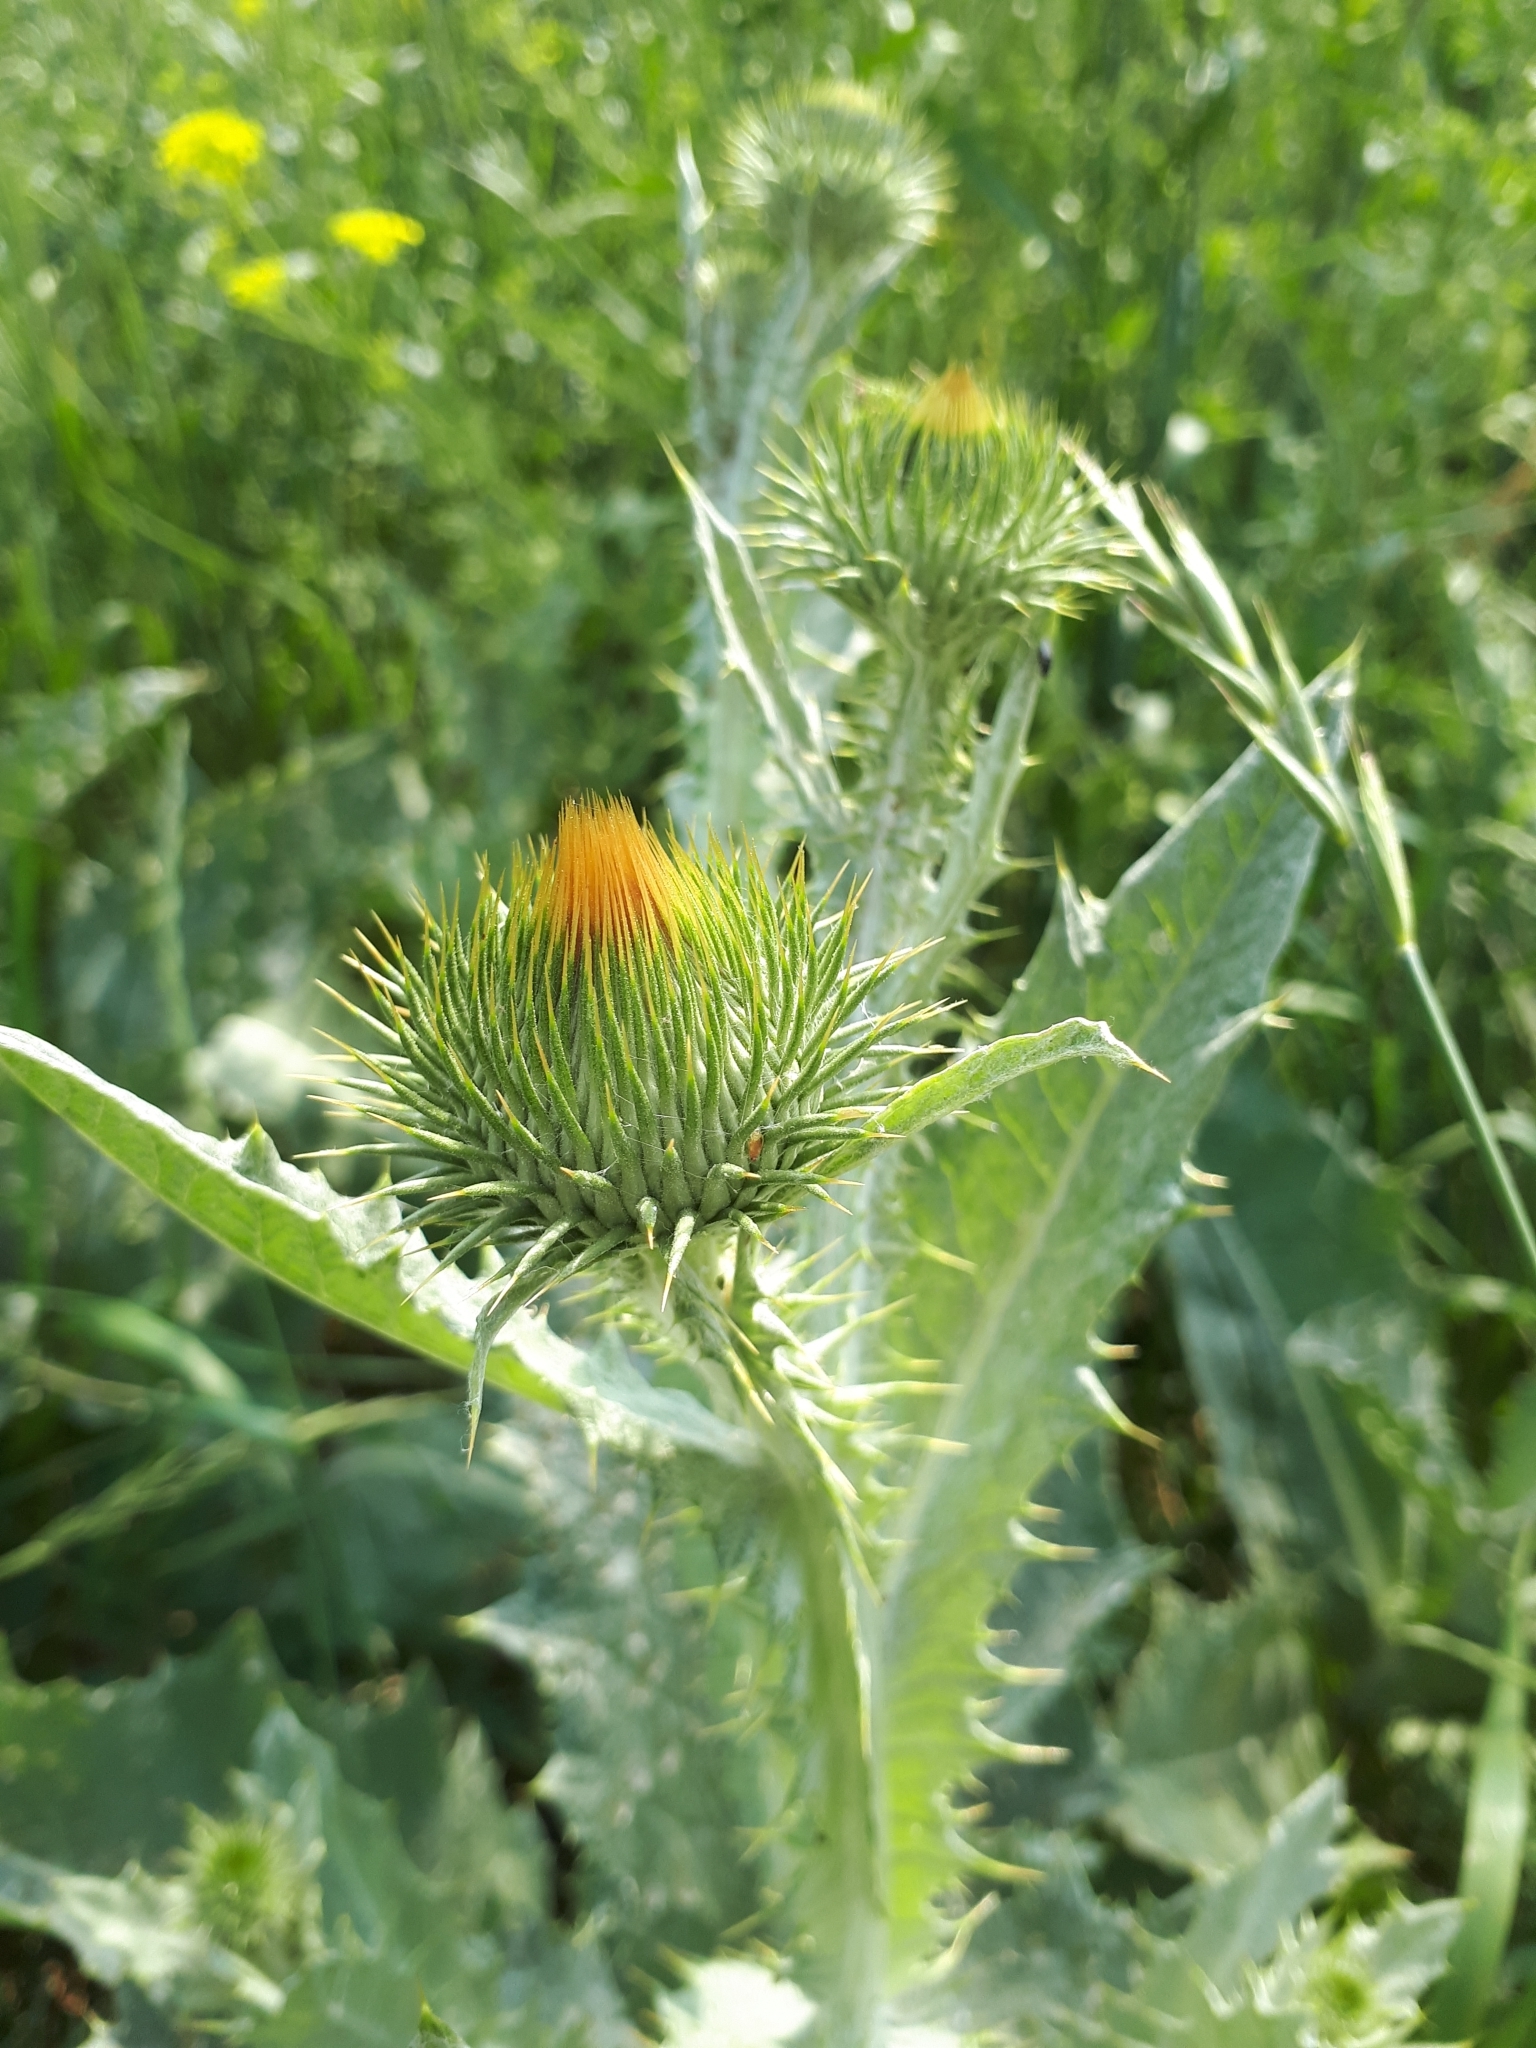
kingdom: Plantae
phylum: Tracheophyta
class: Magnoliopsida
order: Asterales
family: Asteraceae
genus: Onopordum
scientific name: Onopordum acanthium
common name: Scotch thistle
